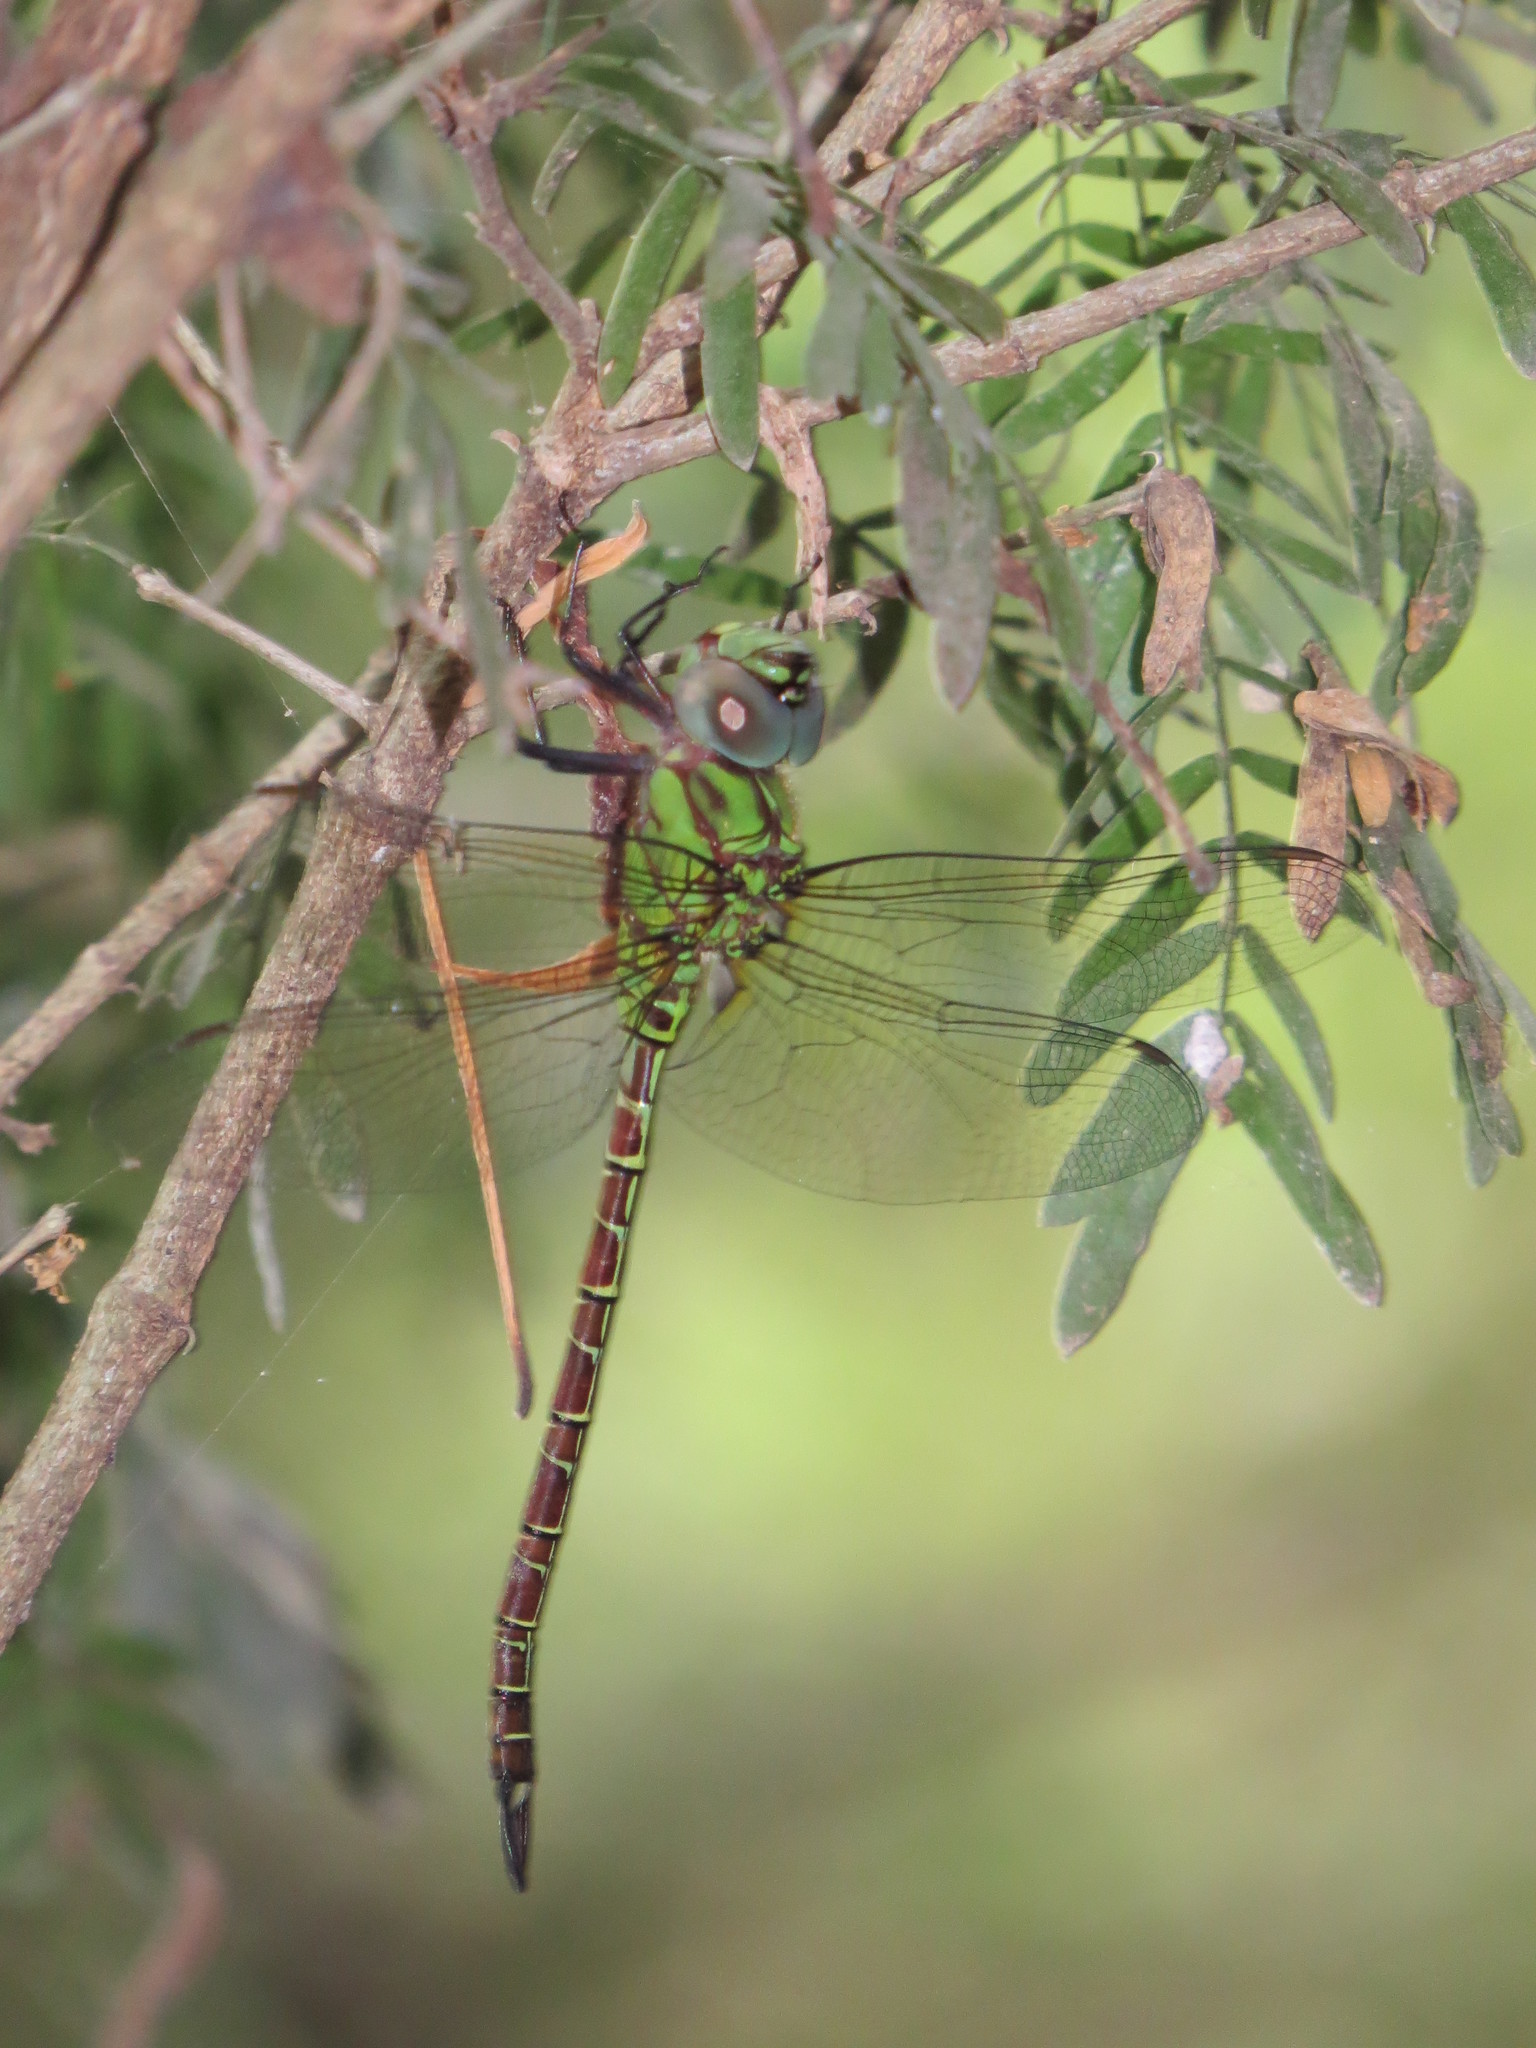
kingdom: Animalia
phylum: Arthropoda
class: Insecta
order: Odonata
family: Aeshnidae
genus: Coryphaeschna
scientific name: Coryphaeschna adnexa
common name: Blue-faced darner
